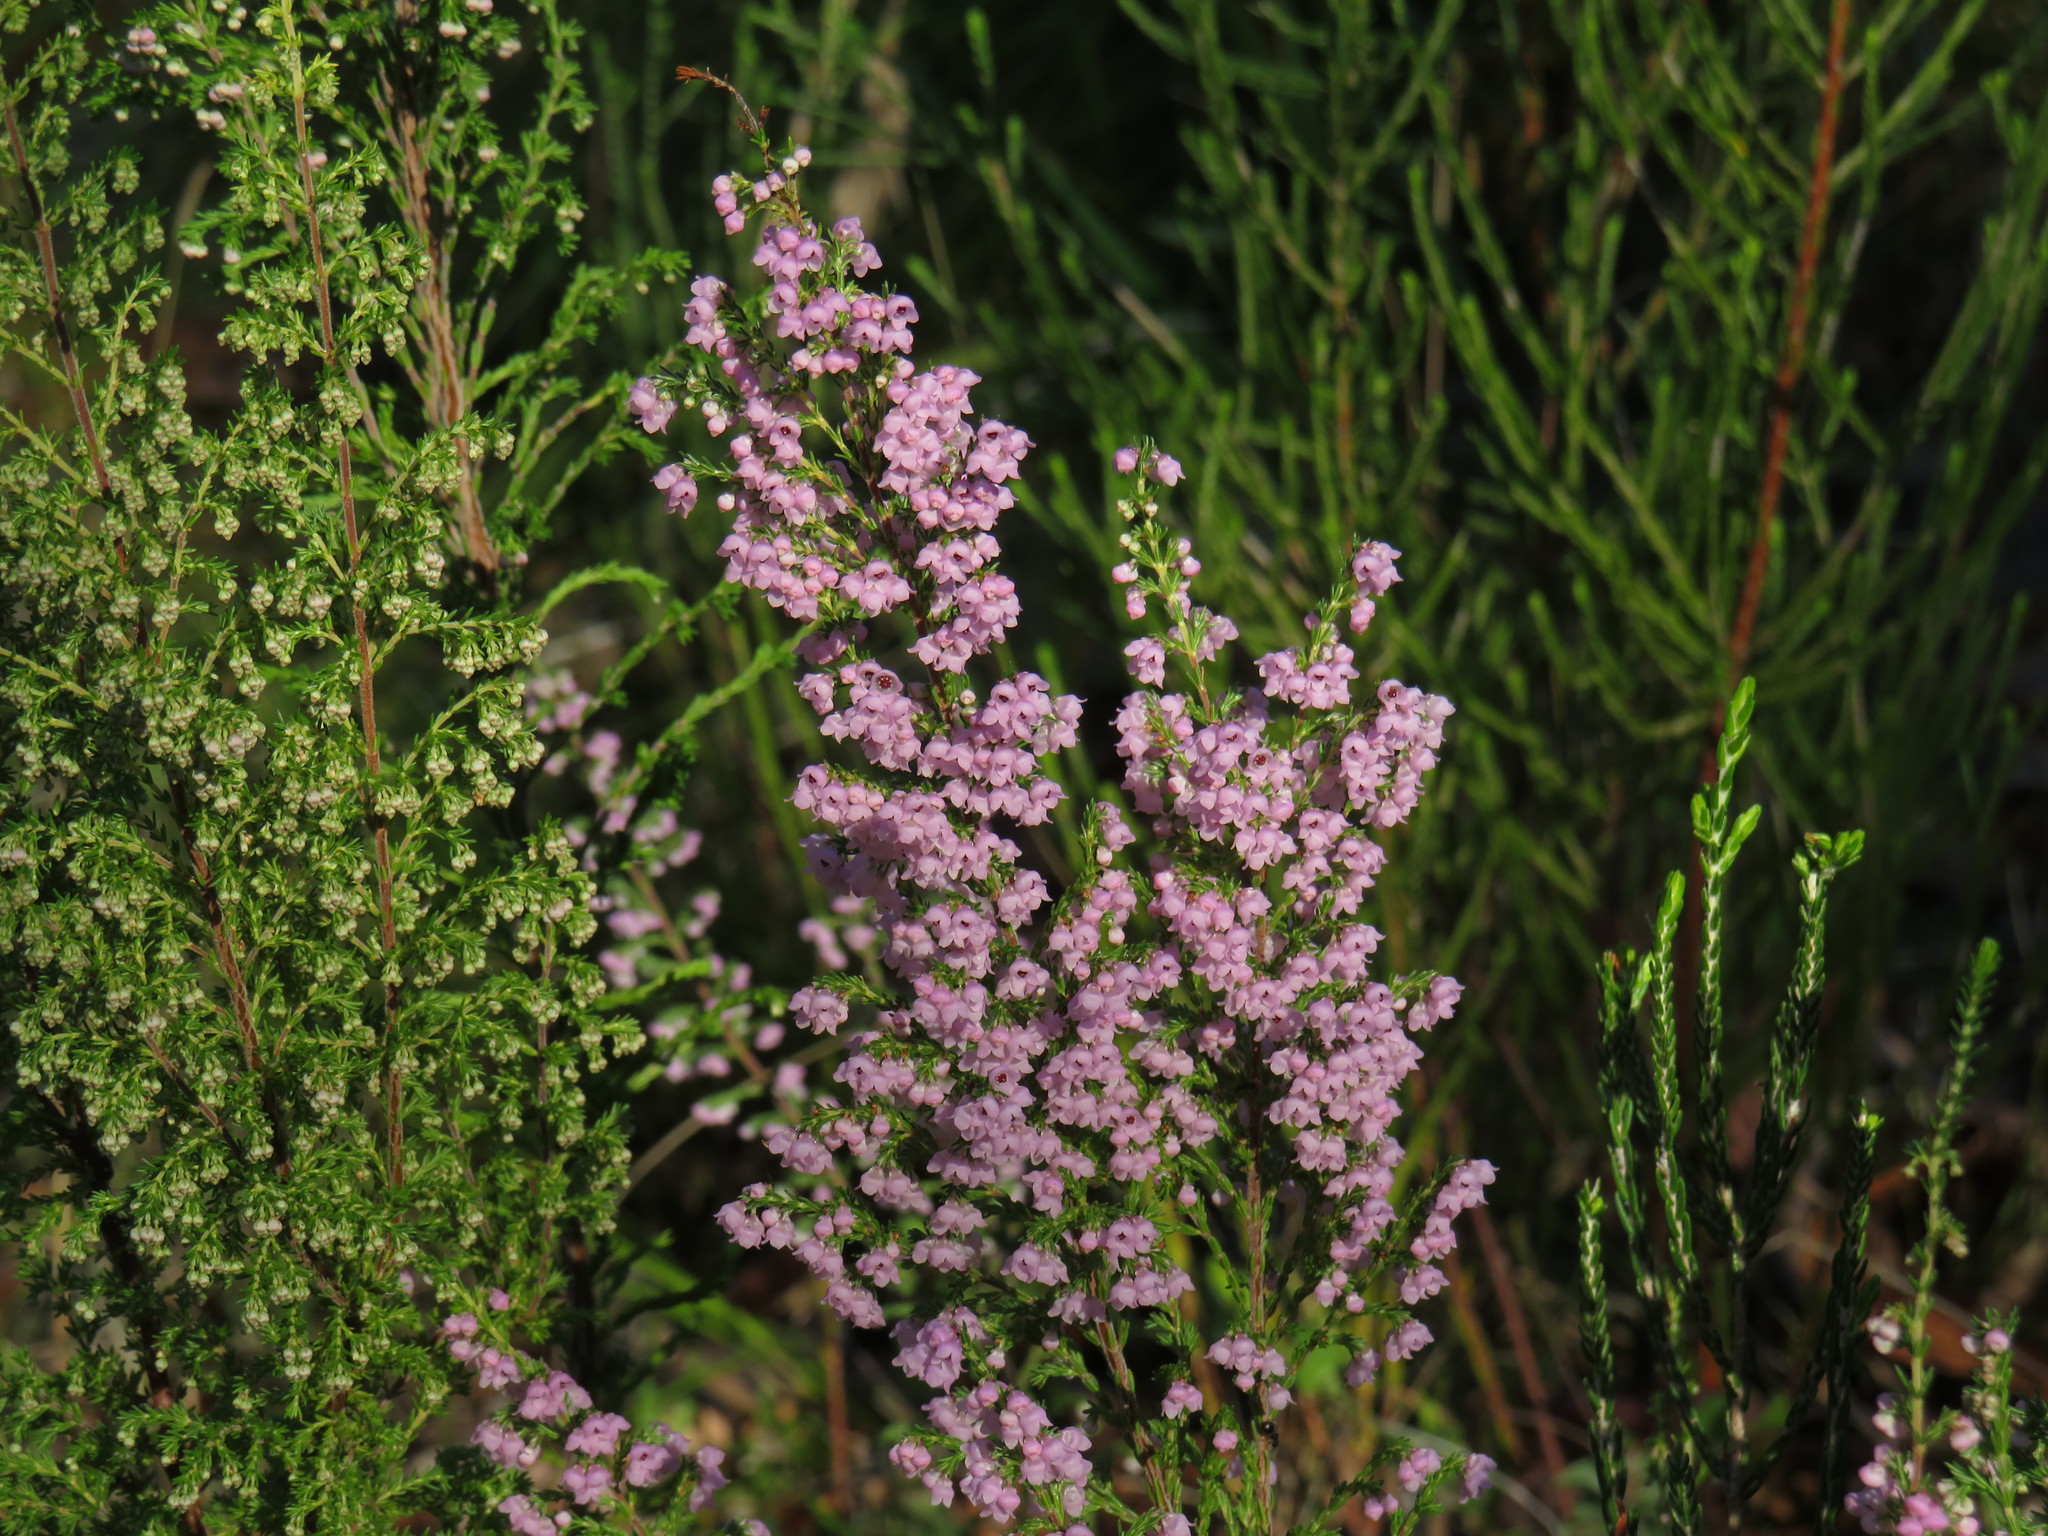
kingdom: Plantae
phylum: Tracheophyta
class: Magnoliopsida
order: Ericales
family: Ericaceae
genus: Erica
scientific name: Erica mauritanica
